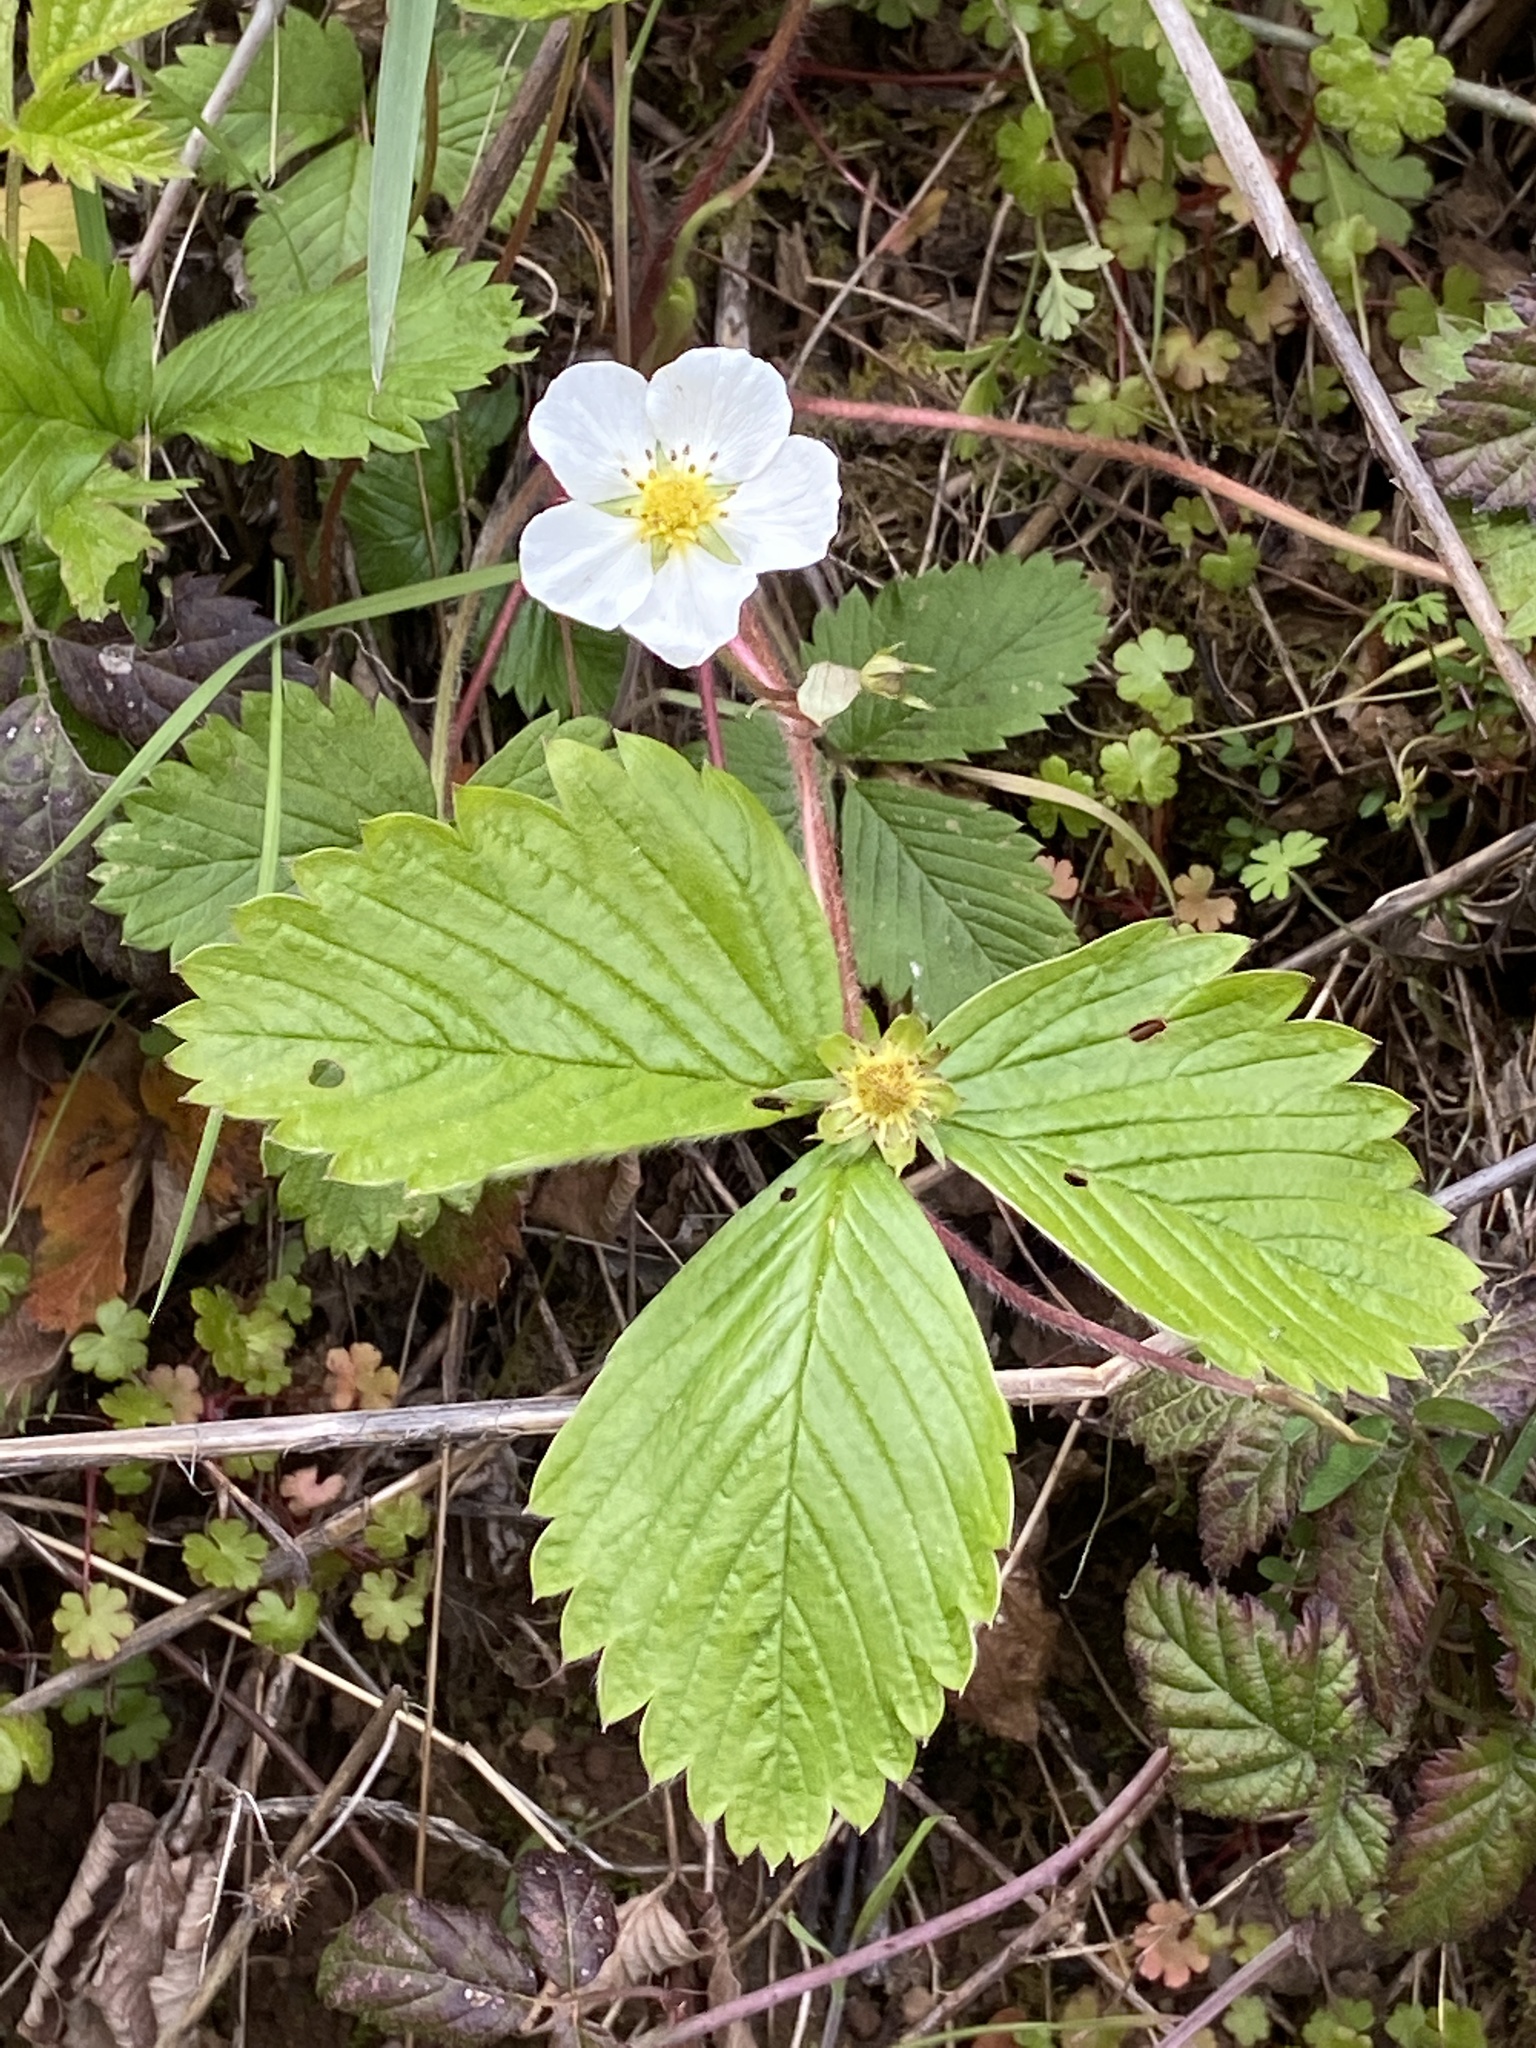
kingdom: Plantae
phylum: Tracheophyta
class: Magnoliopsida
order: Rosales
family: Rosaceae
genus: Fragaria
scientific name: Fragaria vesca
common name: Wild strawberry
